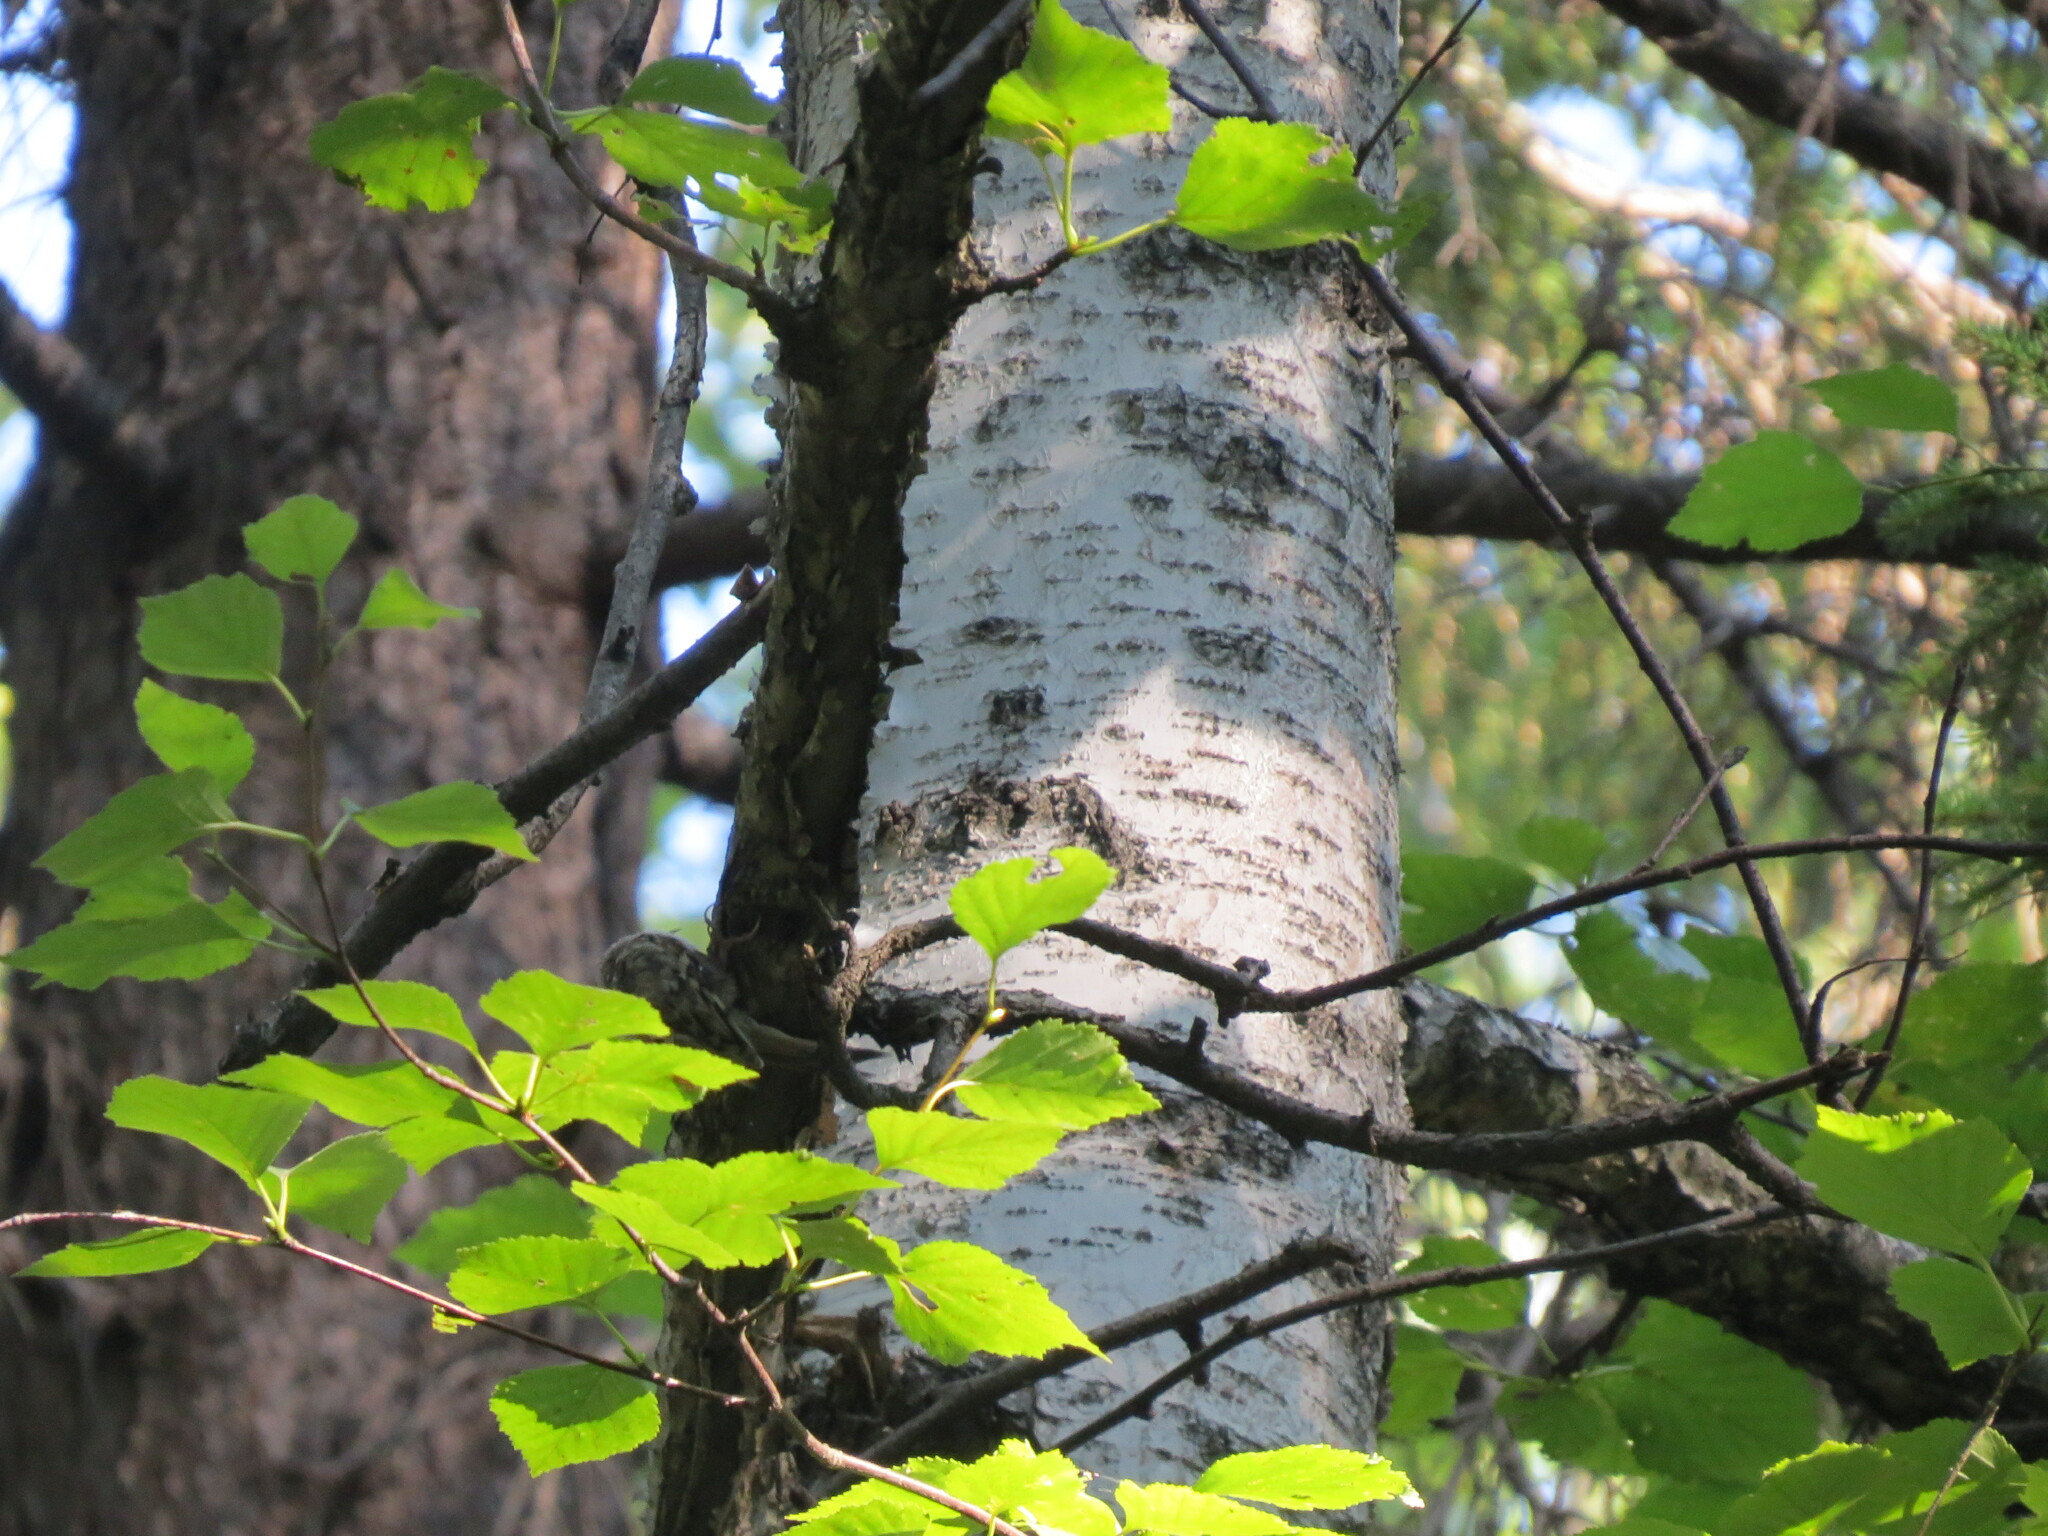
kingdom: Animalia
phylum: Chordata
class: Aves
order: Passeriformes
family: Certhiidae
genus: Certhia
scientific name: Certhia familiaris
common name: Eurasian treecreeper
